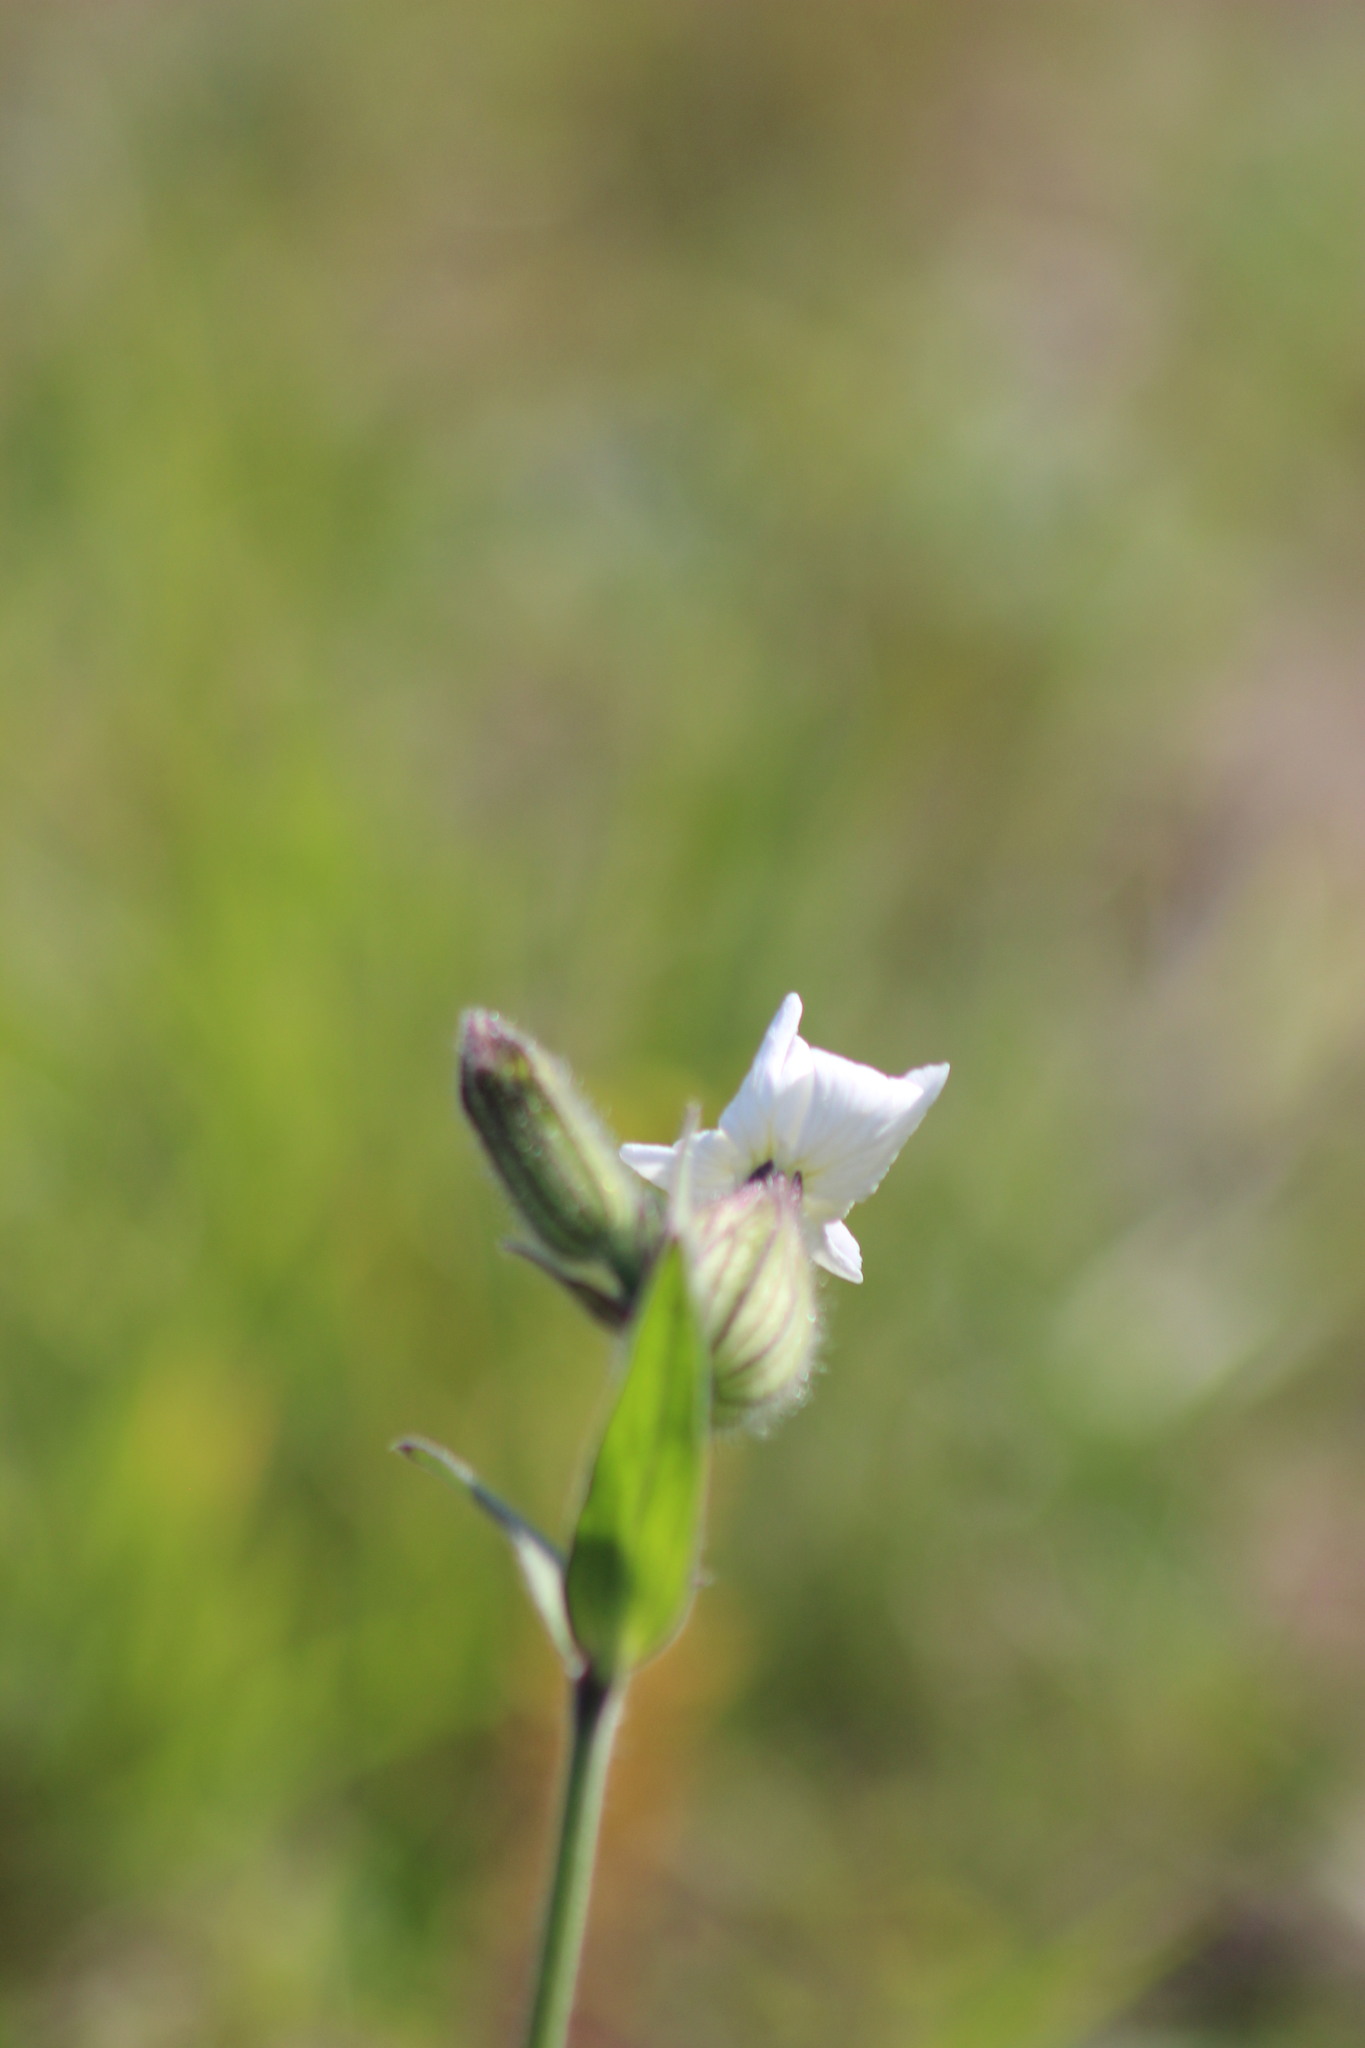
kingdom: Plantae
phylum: Tracheophyta
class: Magnoliopsida
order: Caryophyllales
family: Caryophyllaceae
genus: Silene
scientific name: Silene latifolia
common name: White campion
